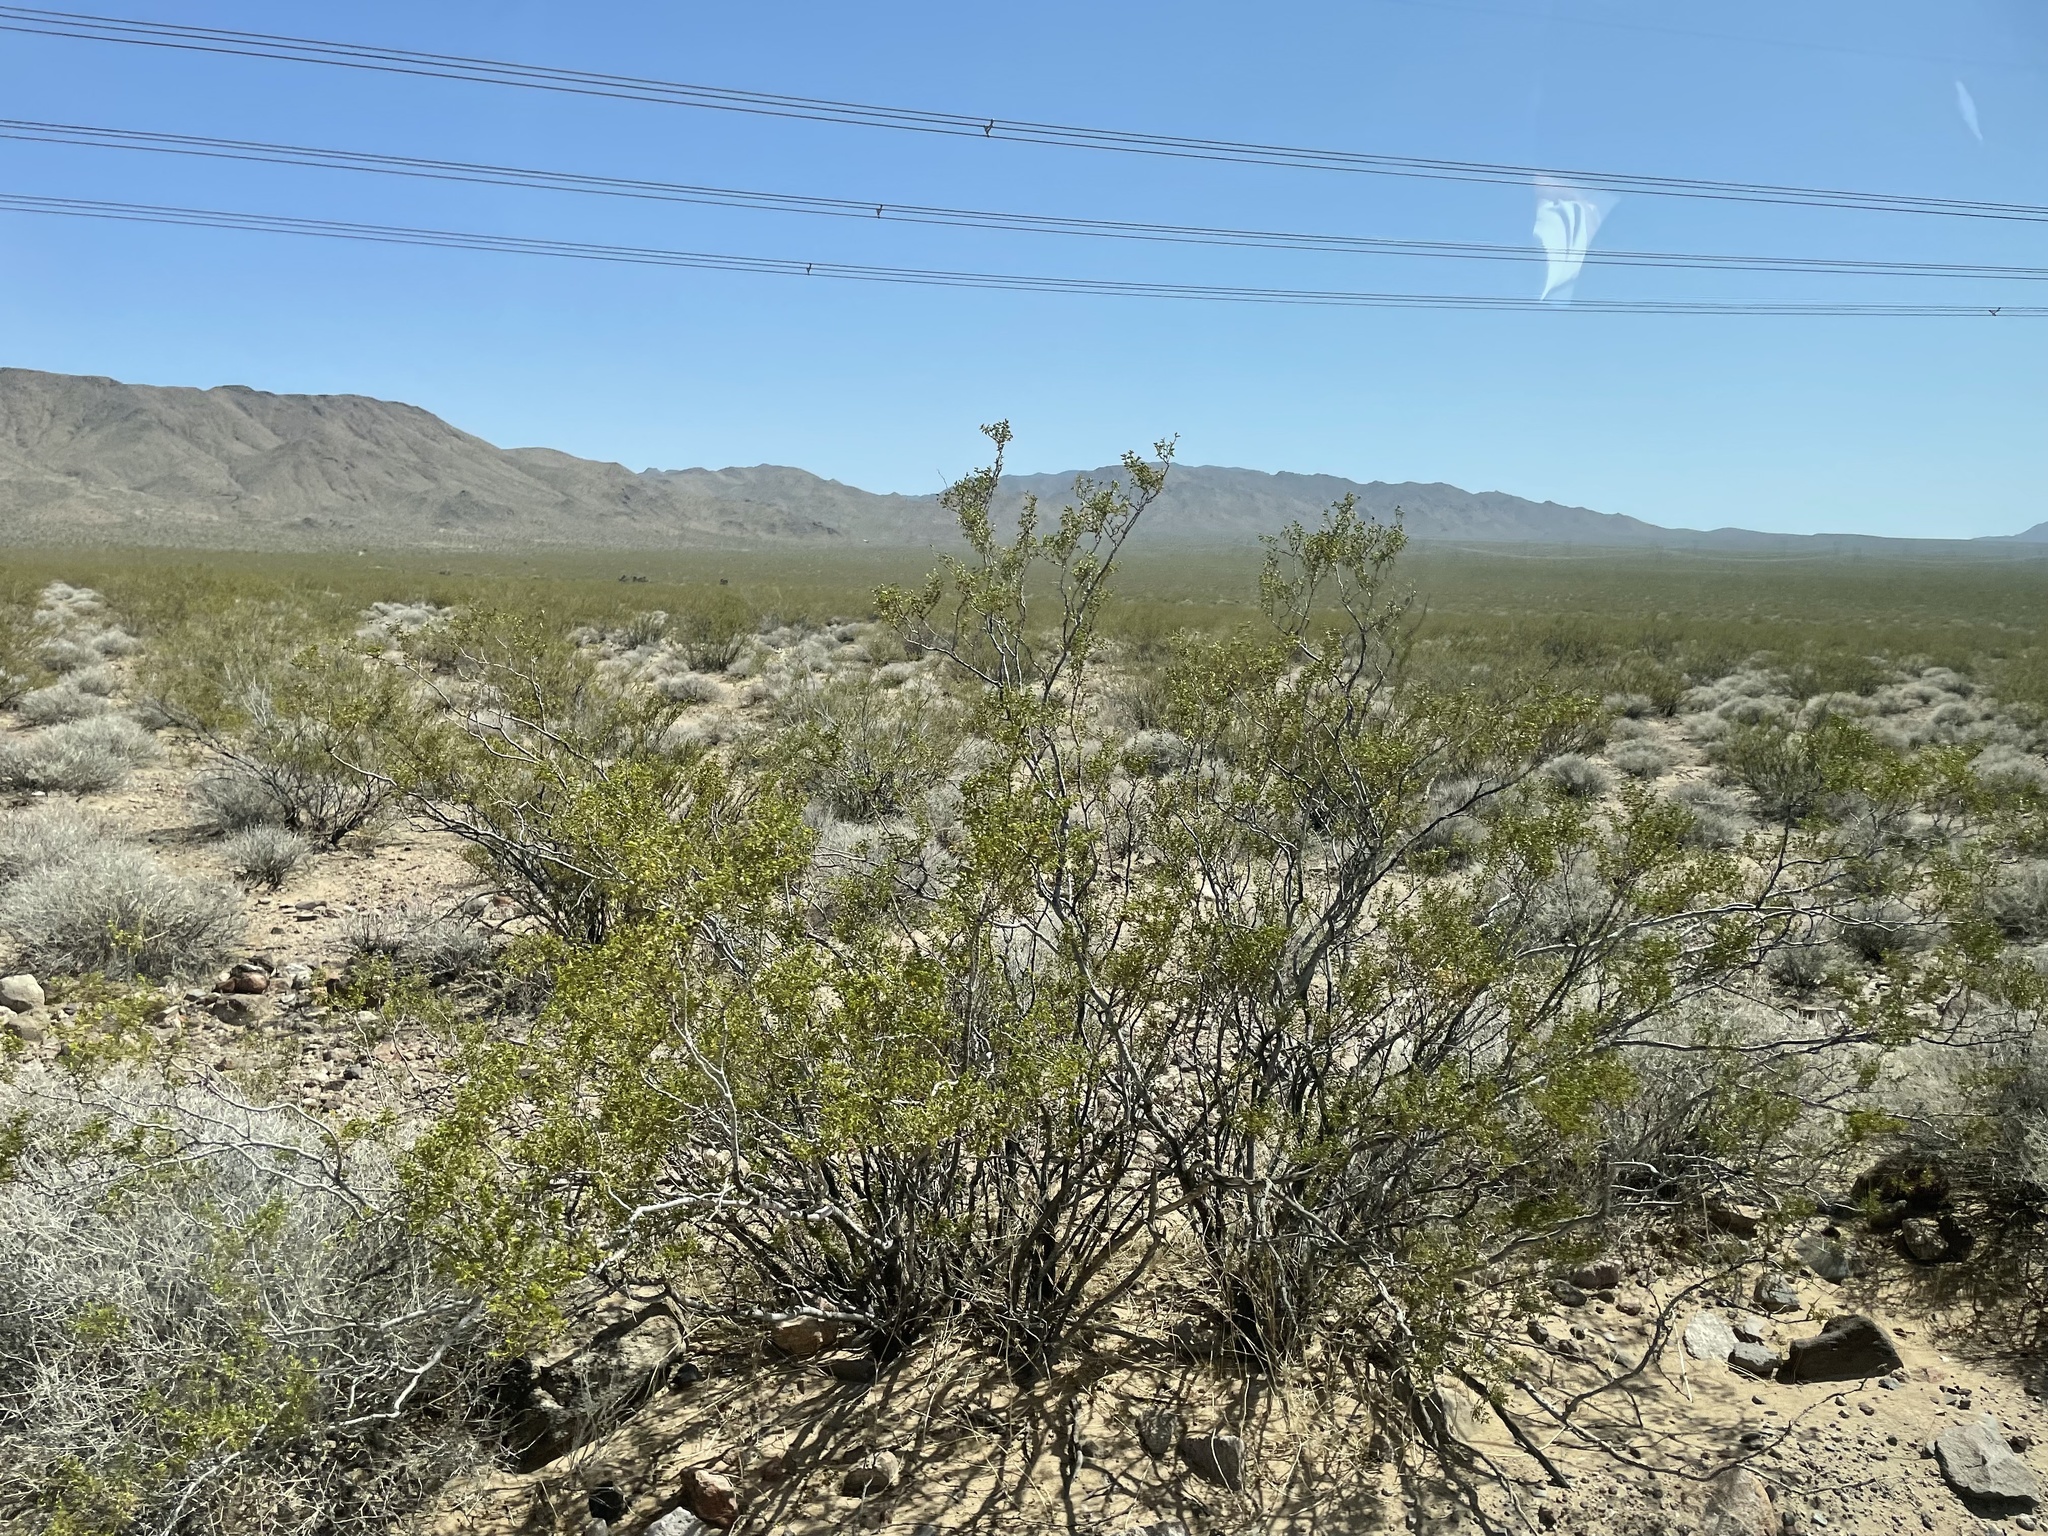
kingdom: Plantae
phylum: Tracheophyta
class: Magnoliopsida
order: Zygophyllales
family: Zygophyllaceae
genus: Larrea
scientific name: Larrea tridentata
